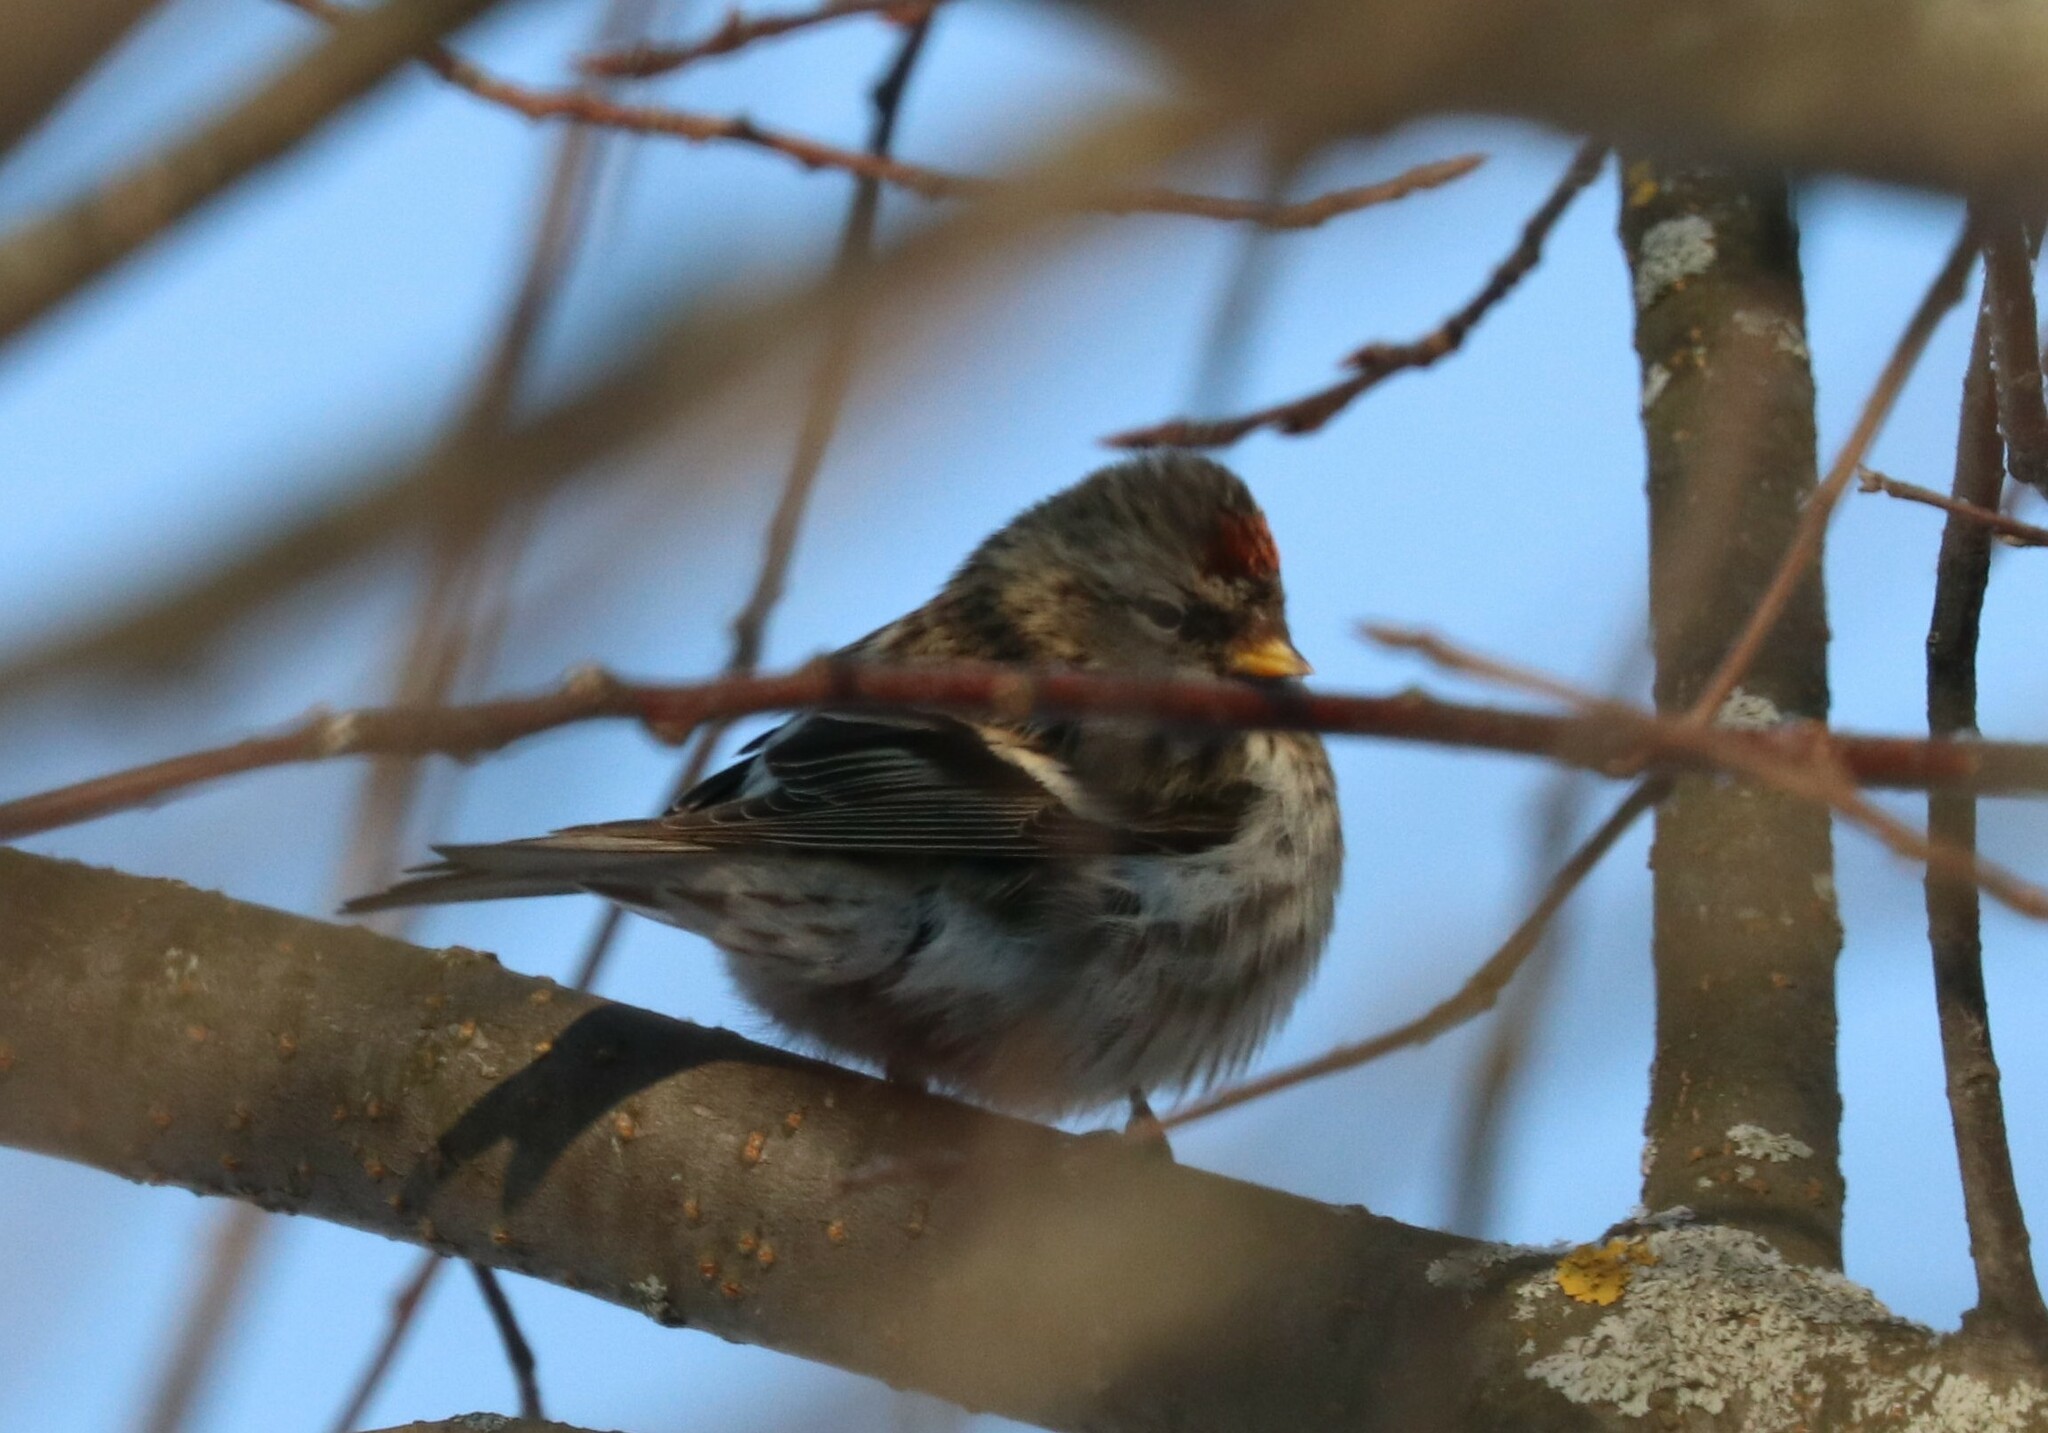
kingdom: Animalia
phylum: Chordata
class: Aves
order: Passeriformes
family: Fringillidae
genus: Acanthis
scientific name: Acanthis flammea
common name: Common redpoll
